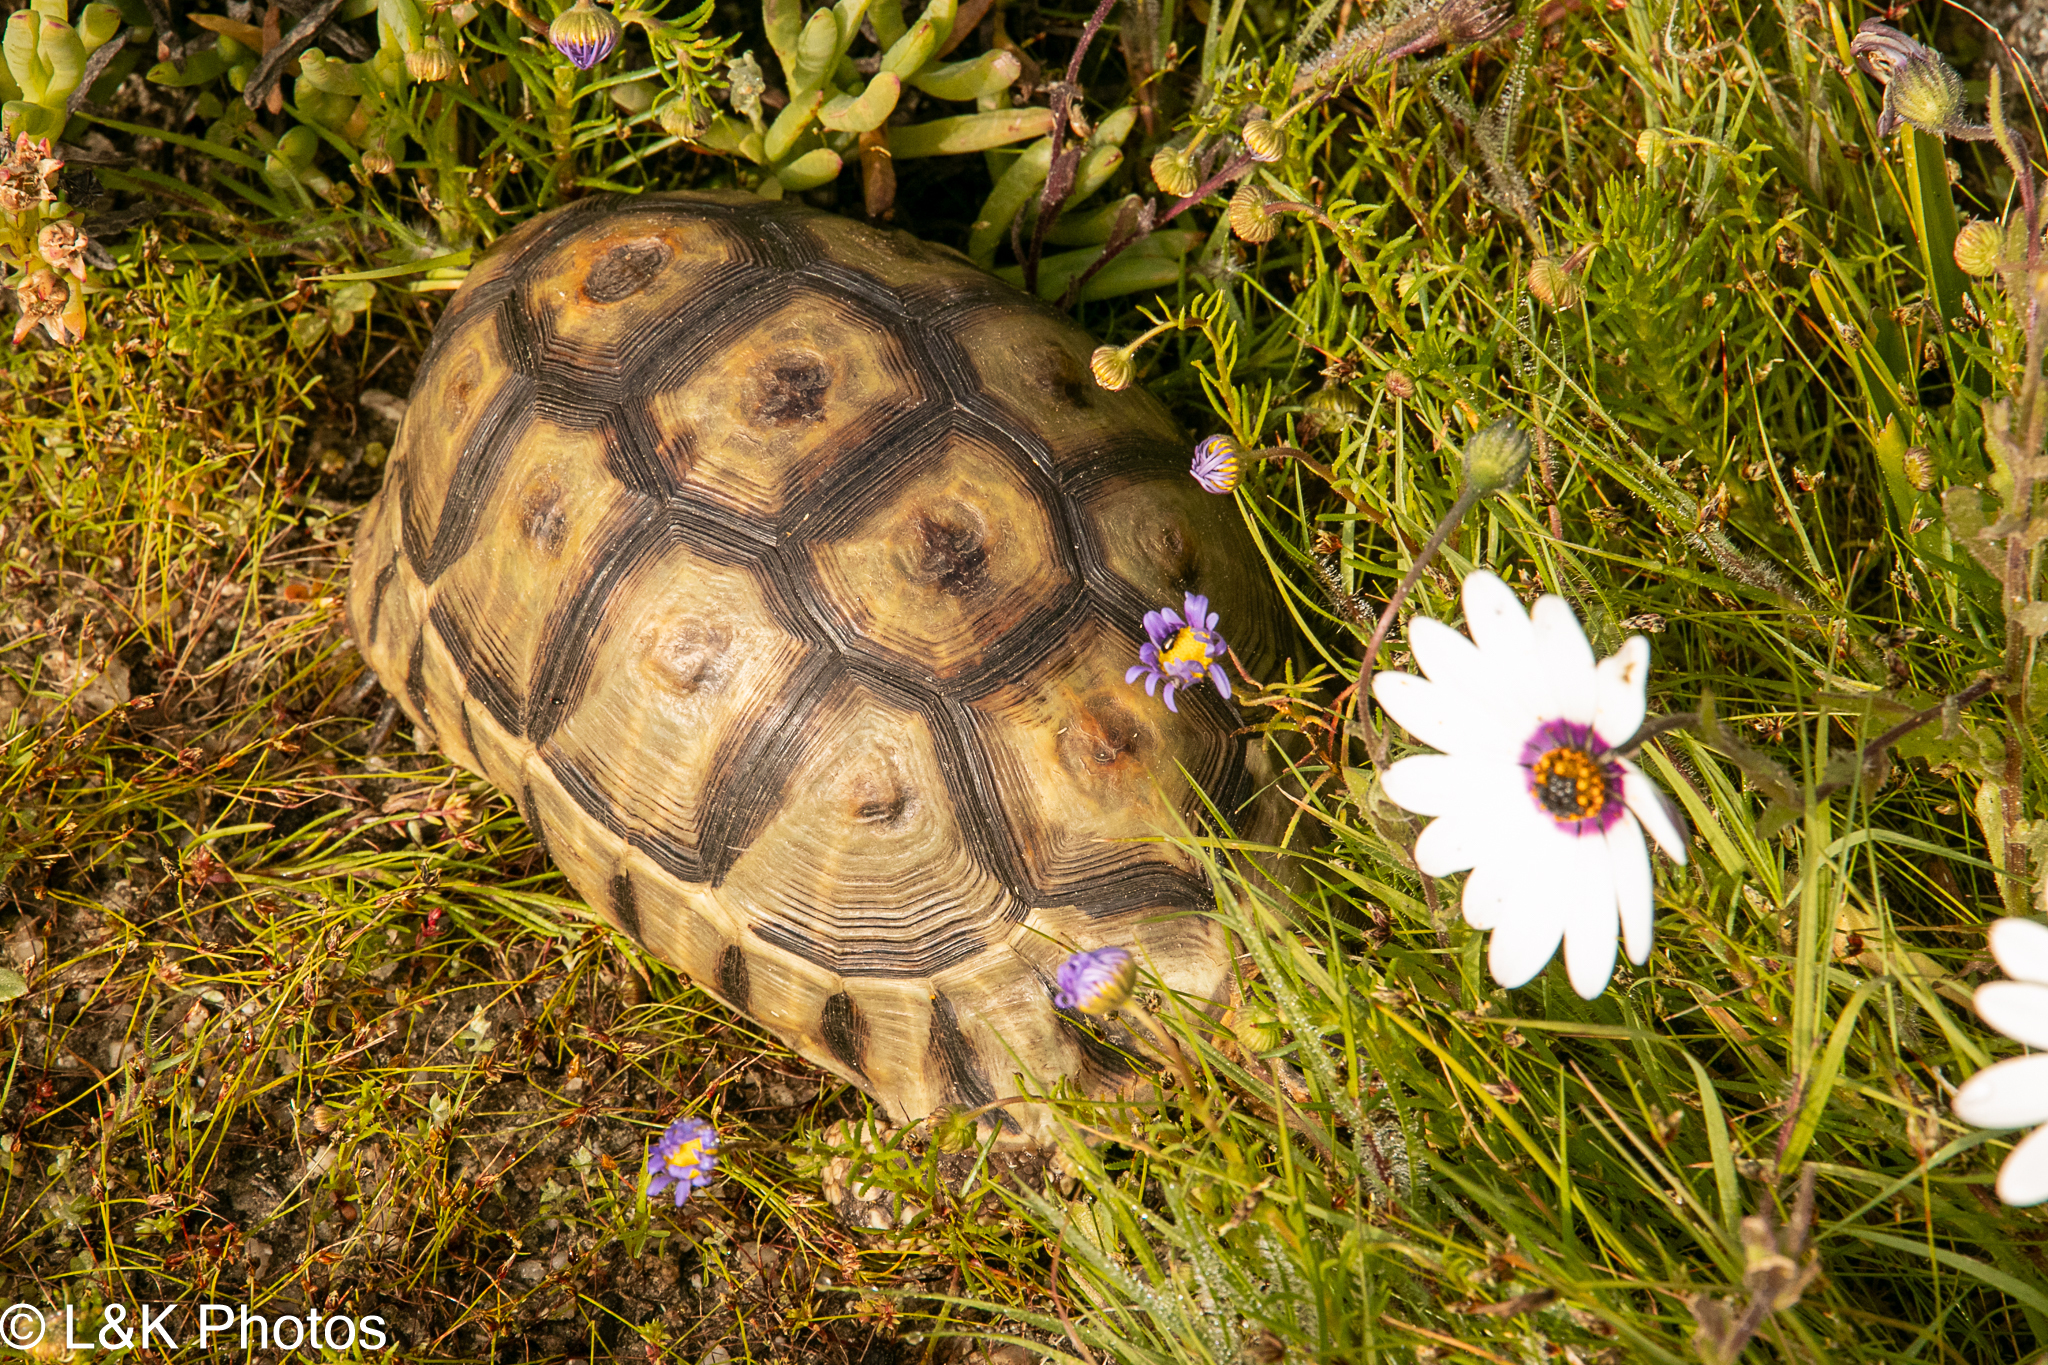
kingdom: Animalia
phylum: Chordata
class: Testudines
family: Testudinidae
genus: Chersina
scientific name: Chersina angulata
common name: South african bowsprit tortoise
